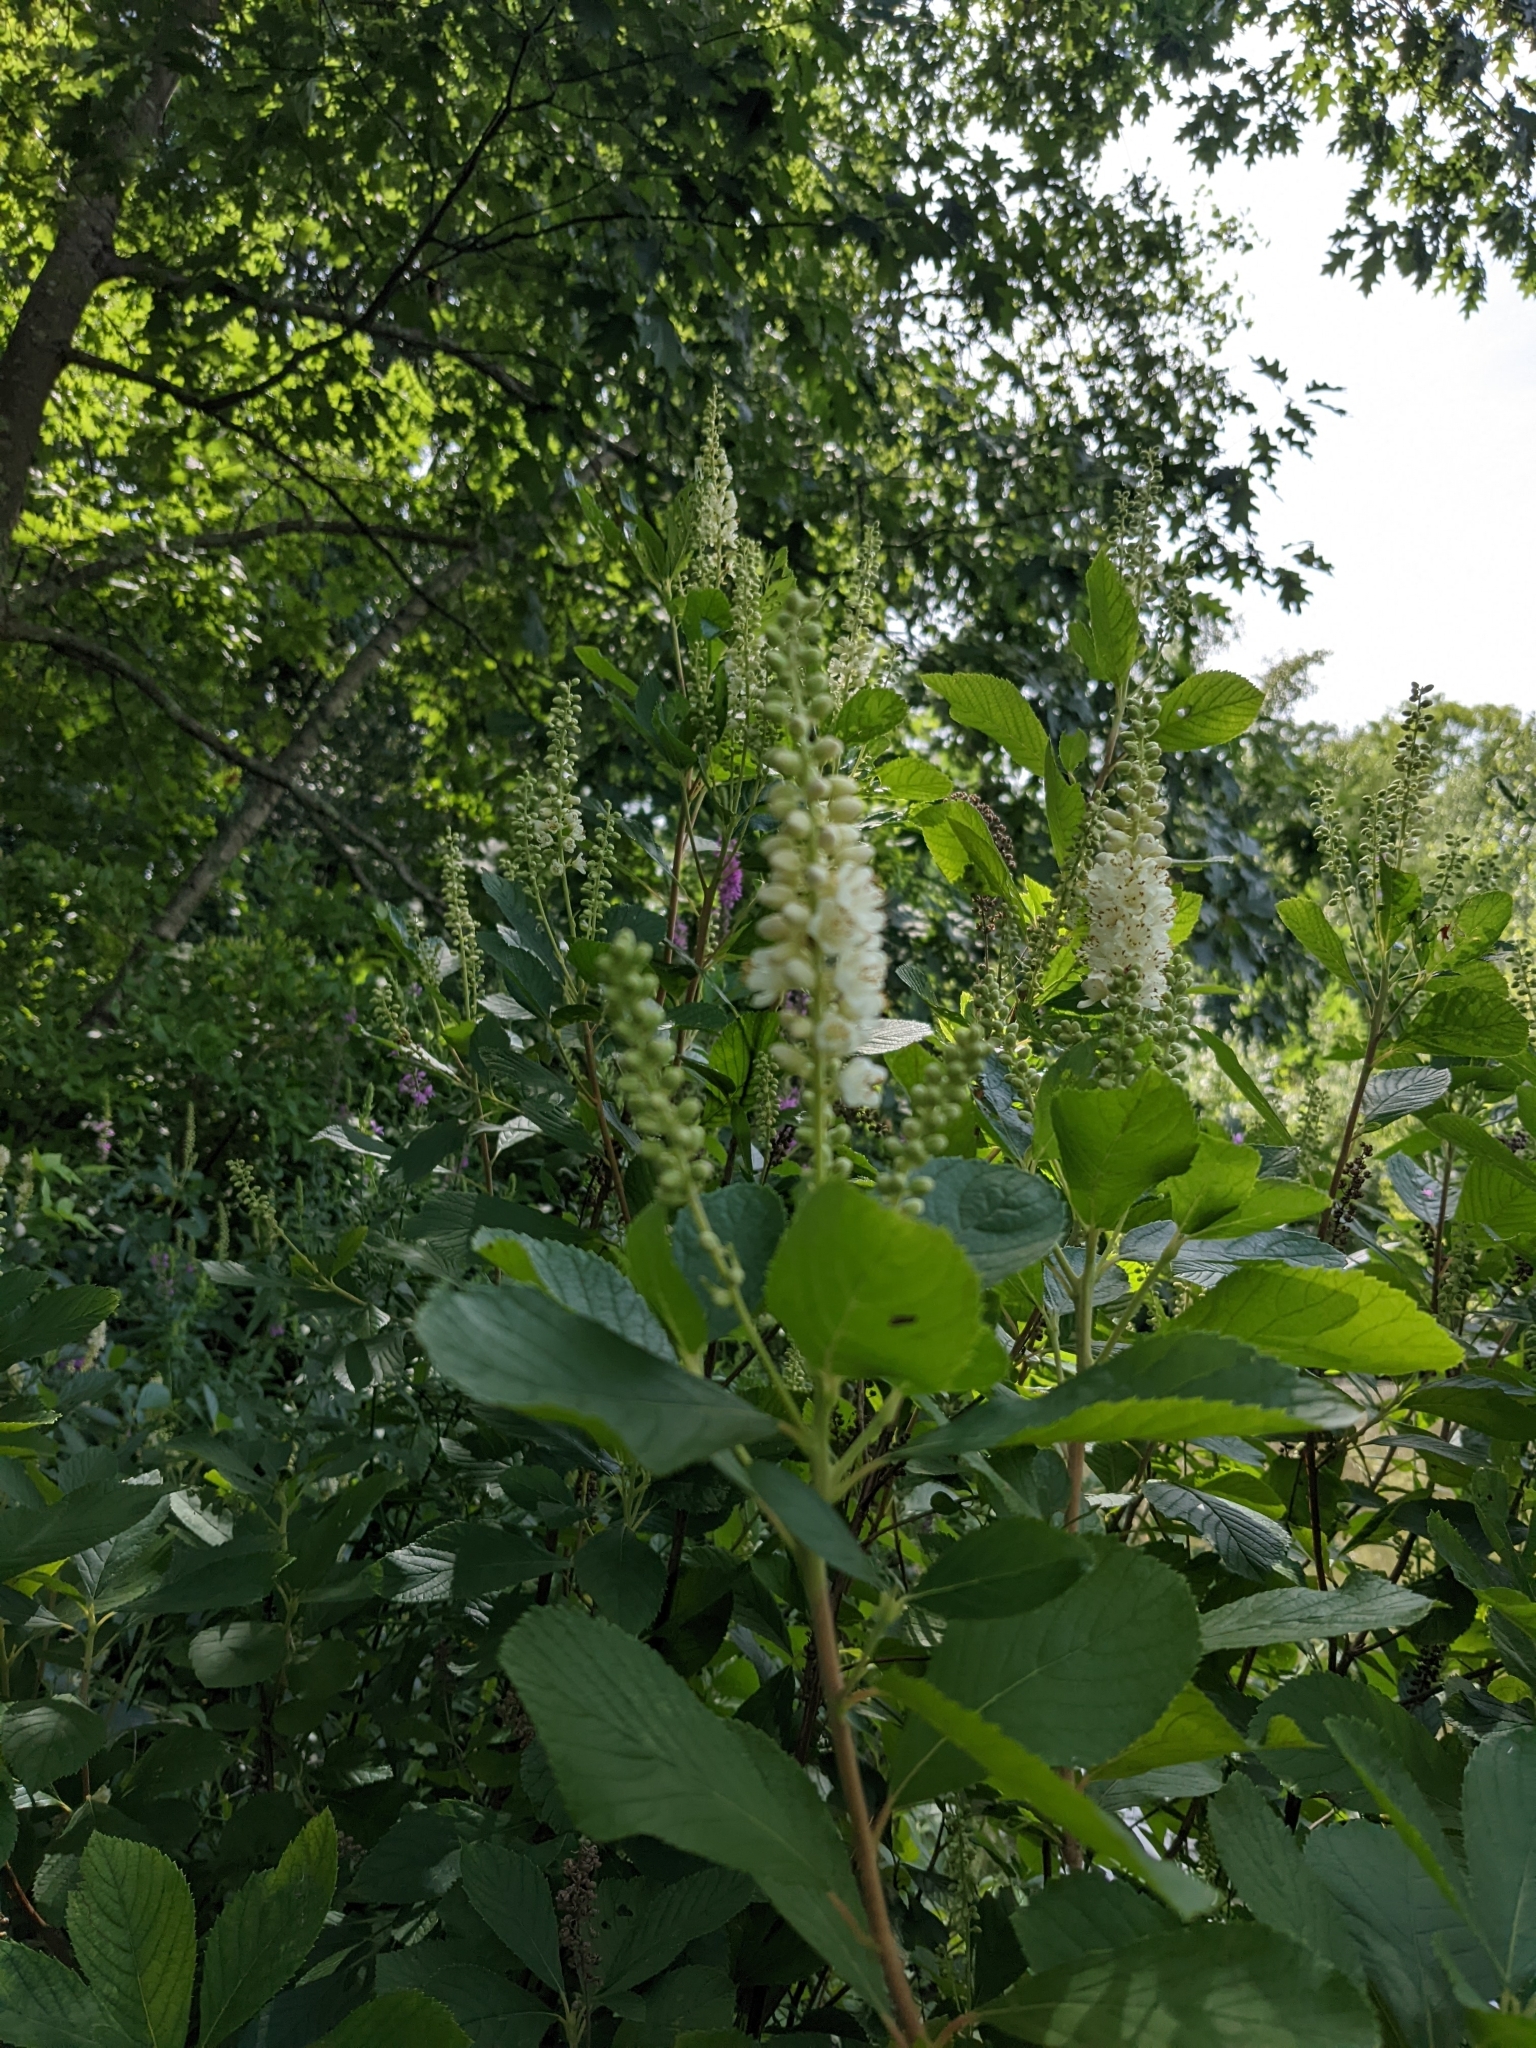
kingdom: Plantae
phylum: Tracheophyta
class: Magnoliopsida
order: Ericales
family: Clethraceae
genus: Clethra
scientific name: Clethra alnifolia
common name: Sweet pepperbush
